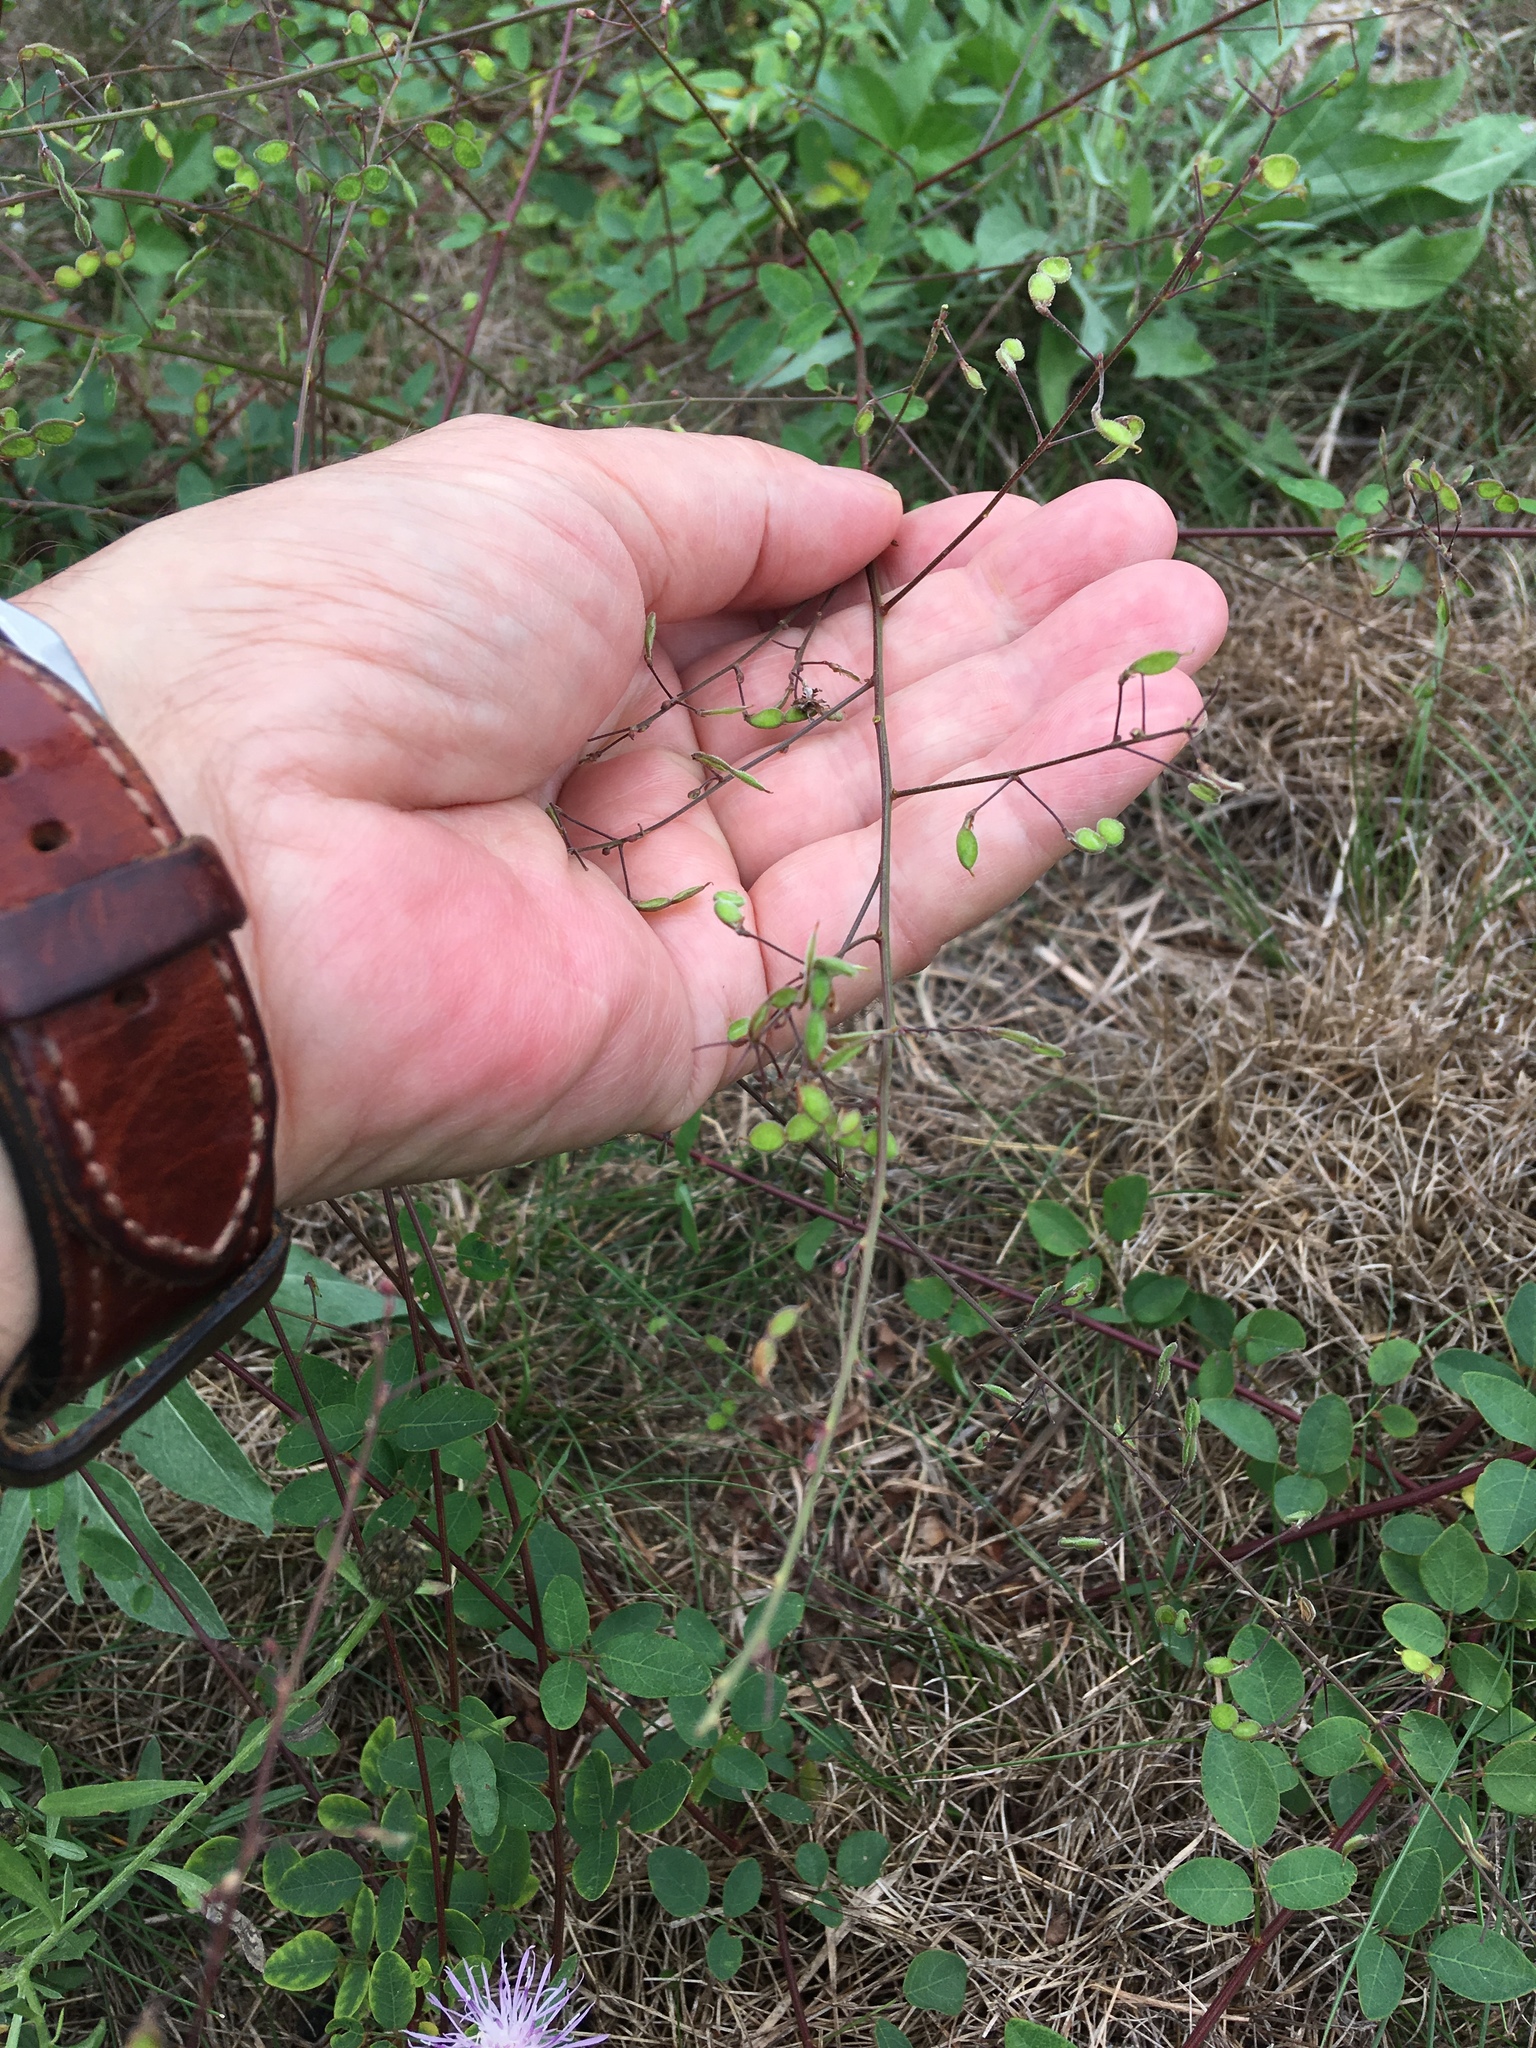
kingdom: Plantae
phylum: Tracheophyta
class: Magnoliopsida
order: Fabales
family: Fabaceae
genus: Desmodium
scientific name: Desmodium marilandicum
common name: Maryland tick-trefoil
